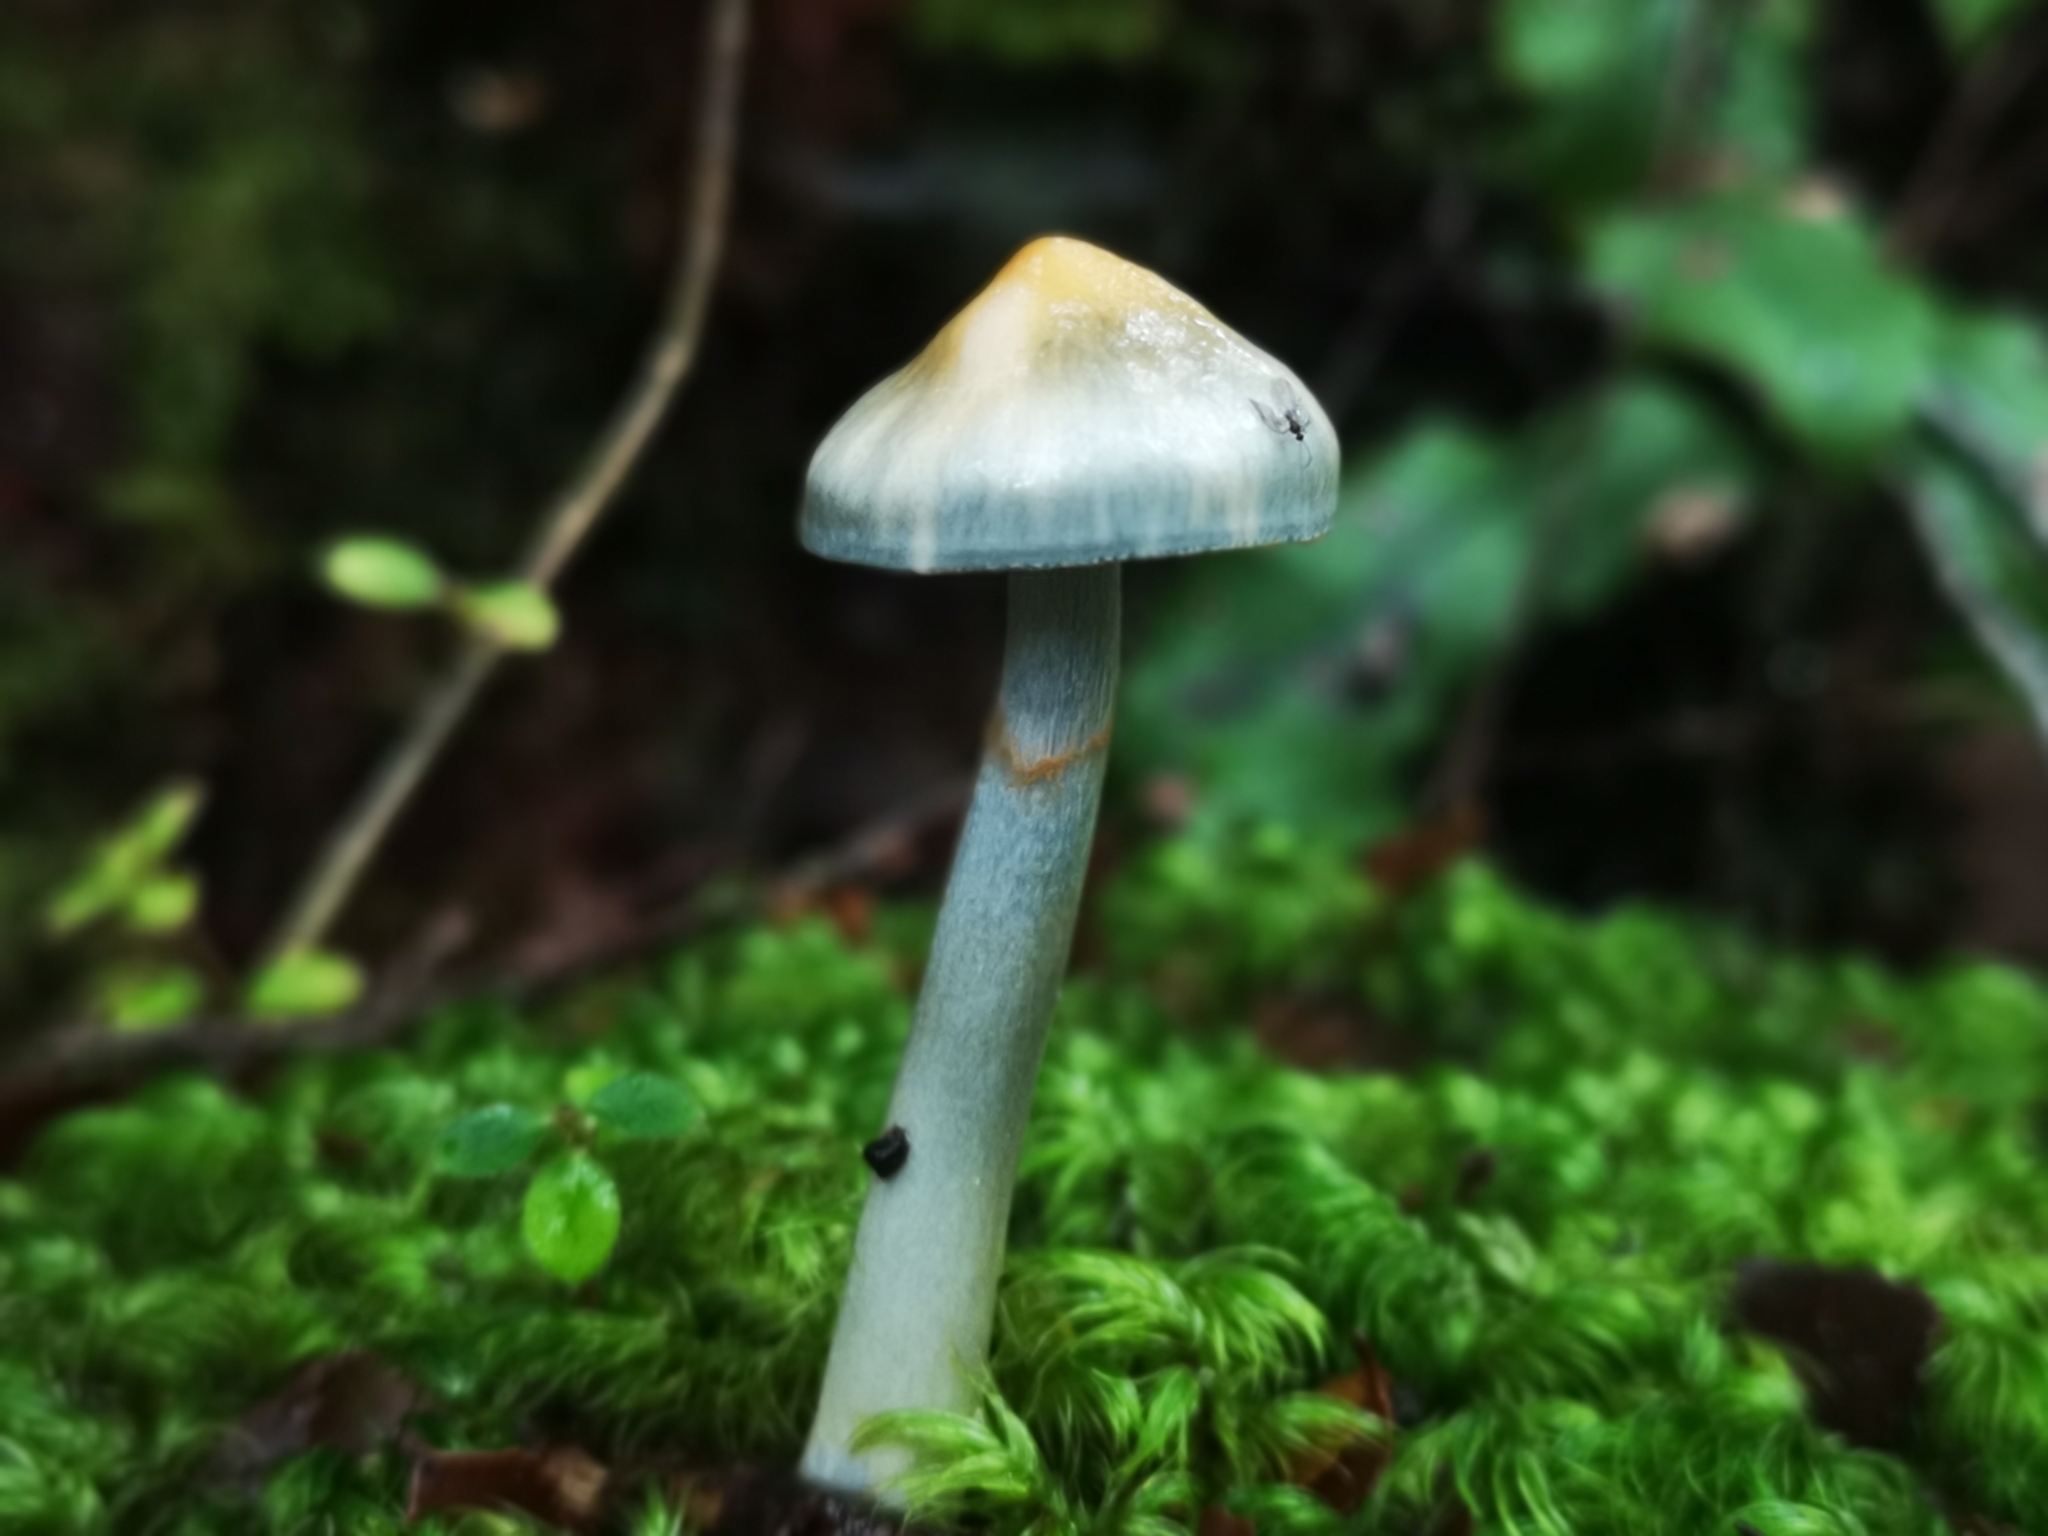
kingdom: Fungi
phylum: Basidiomycota
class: Agaricomycetes
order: Agaricales
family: Cortinariaceae
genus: Cortinarius
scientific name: Cortinarius aerugineoconicus
